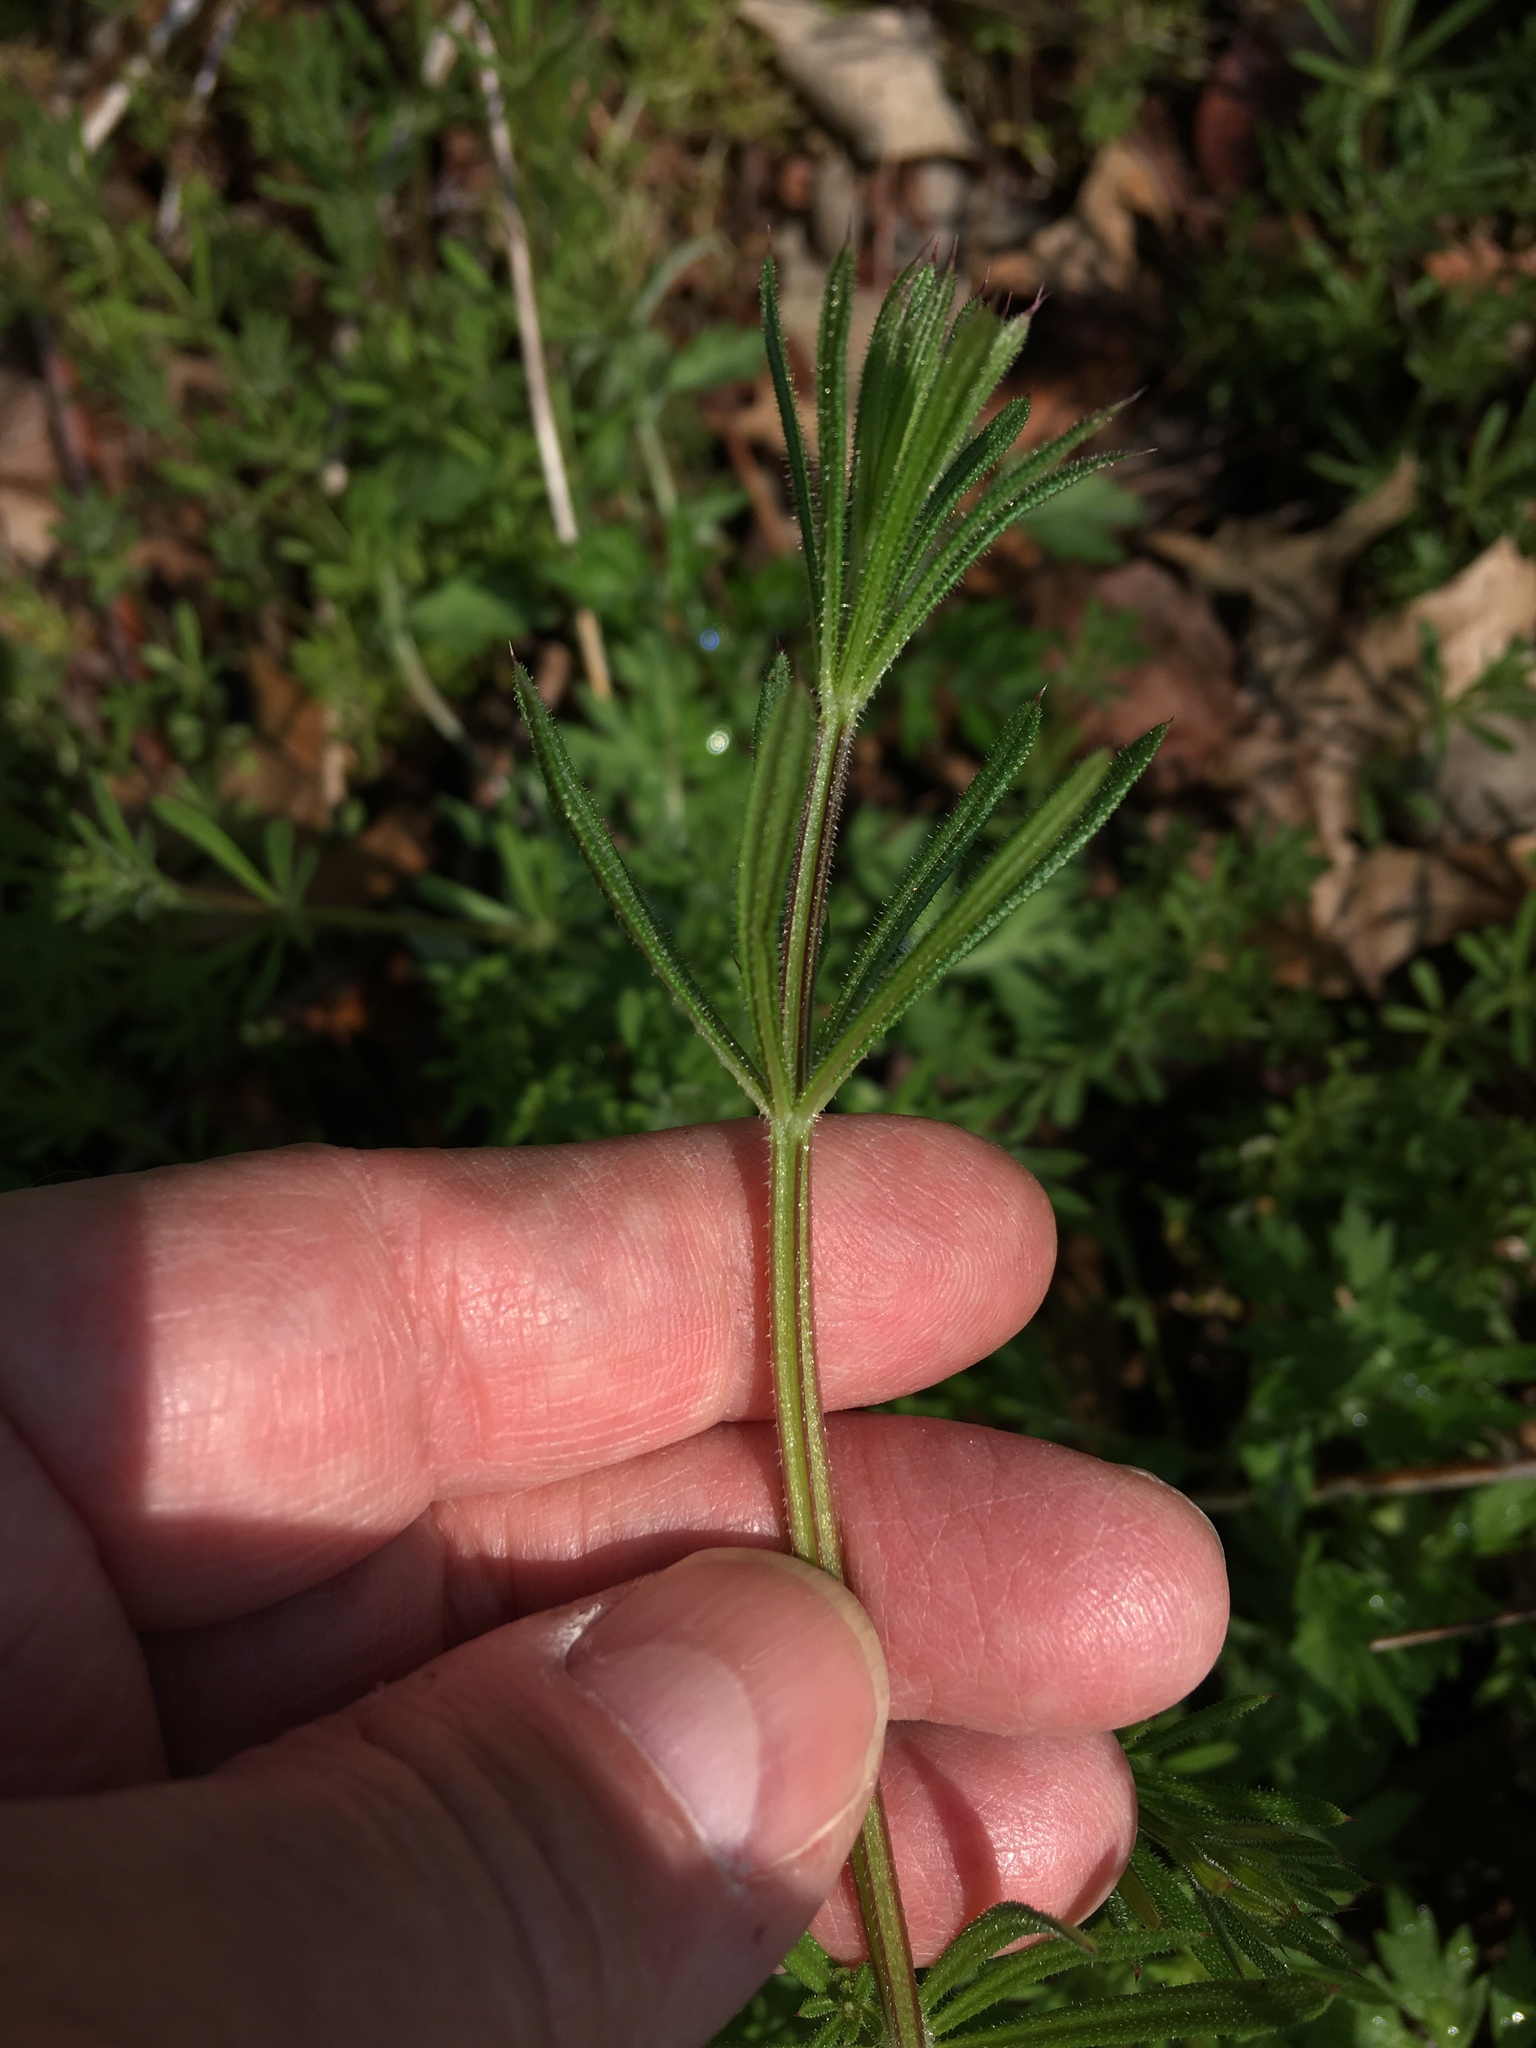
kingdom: Plantae
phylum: Tracheophyta
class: Magnoliopsida
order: Gentianales
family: Rubiaceae
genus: Galium
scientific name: Galium aparine
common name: Cleavers
